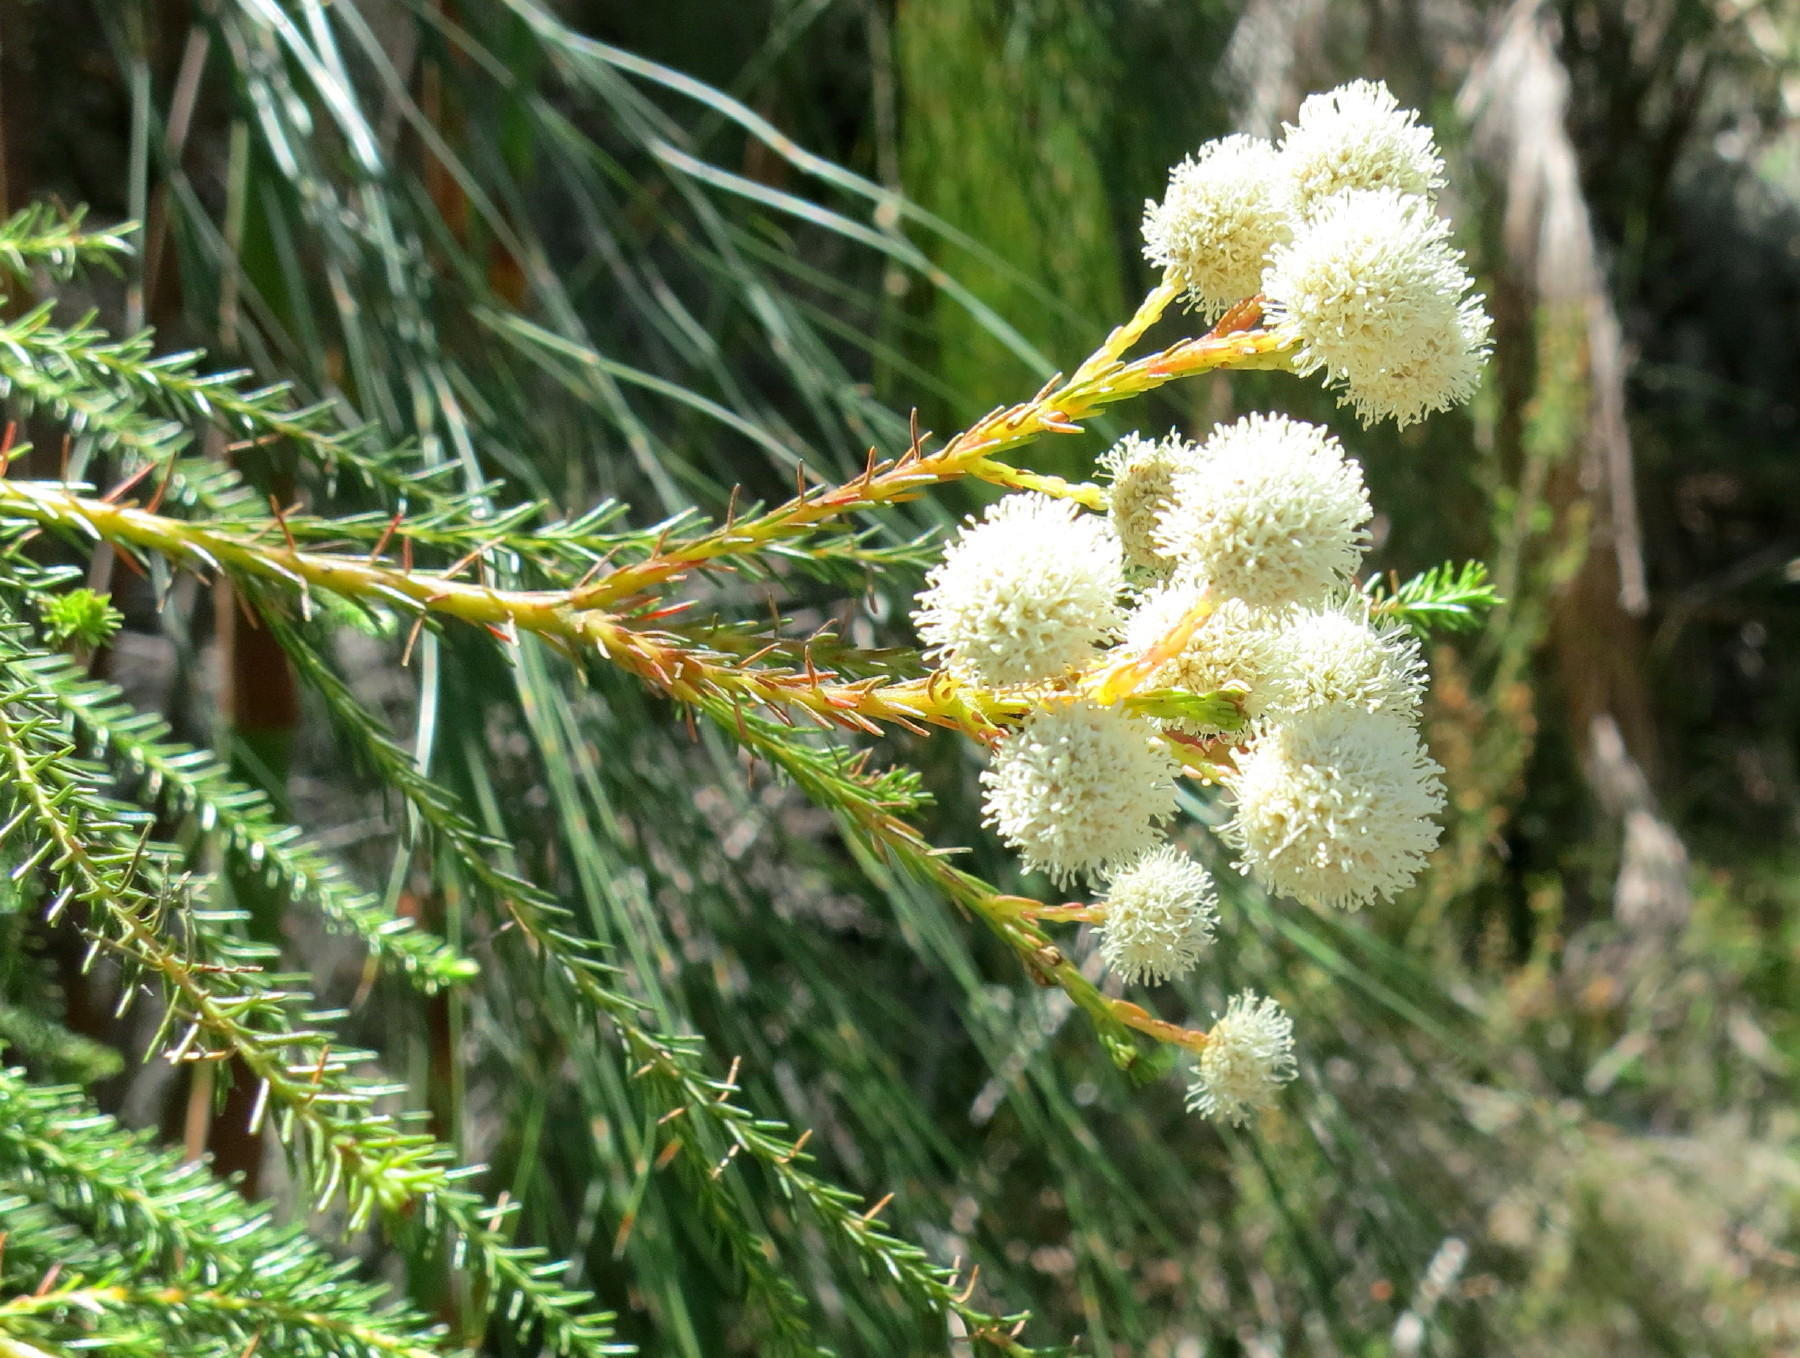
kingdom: Plantae
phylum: Tracheophyta
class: Magnoliopsida
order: Bruniales
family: Bruniaceae
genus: Berzelia
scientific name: Berzelia lanuginosa
